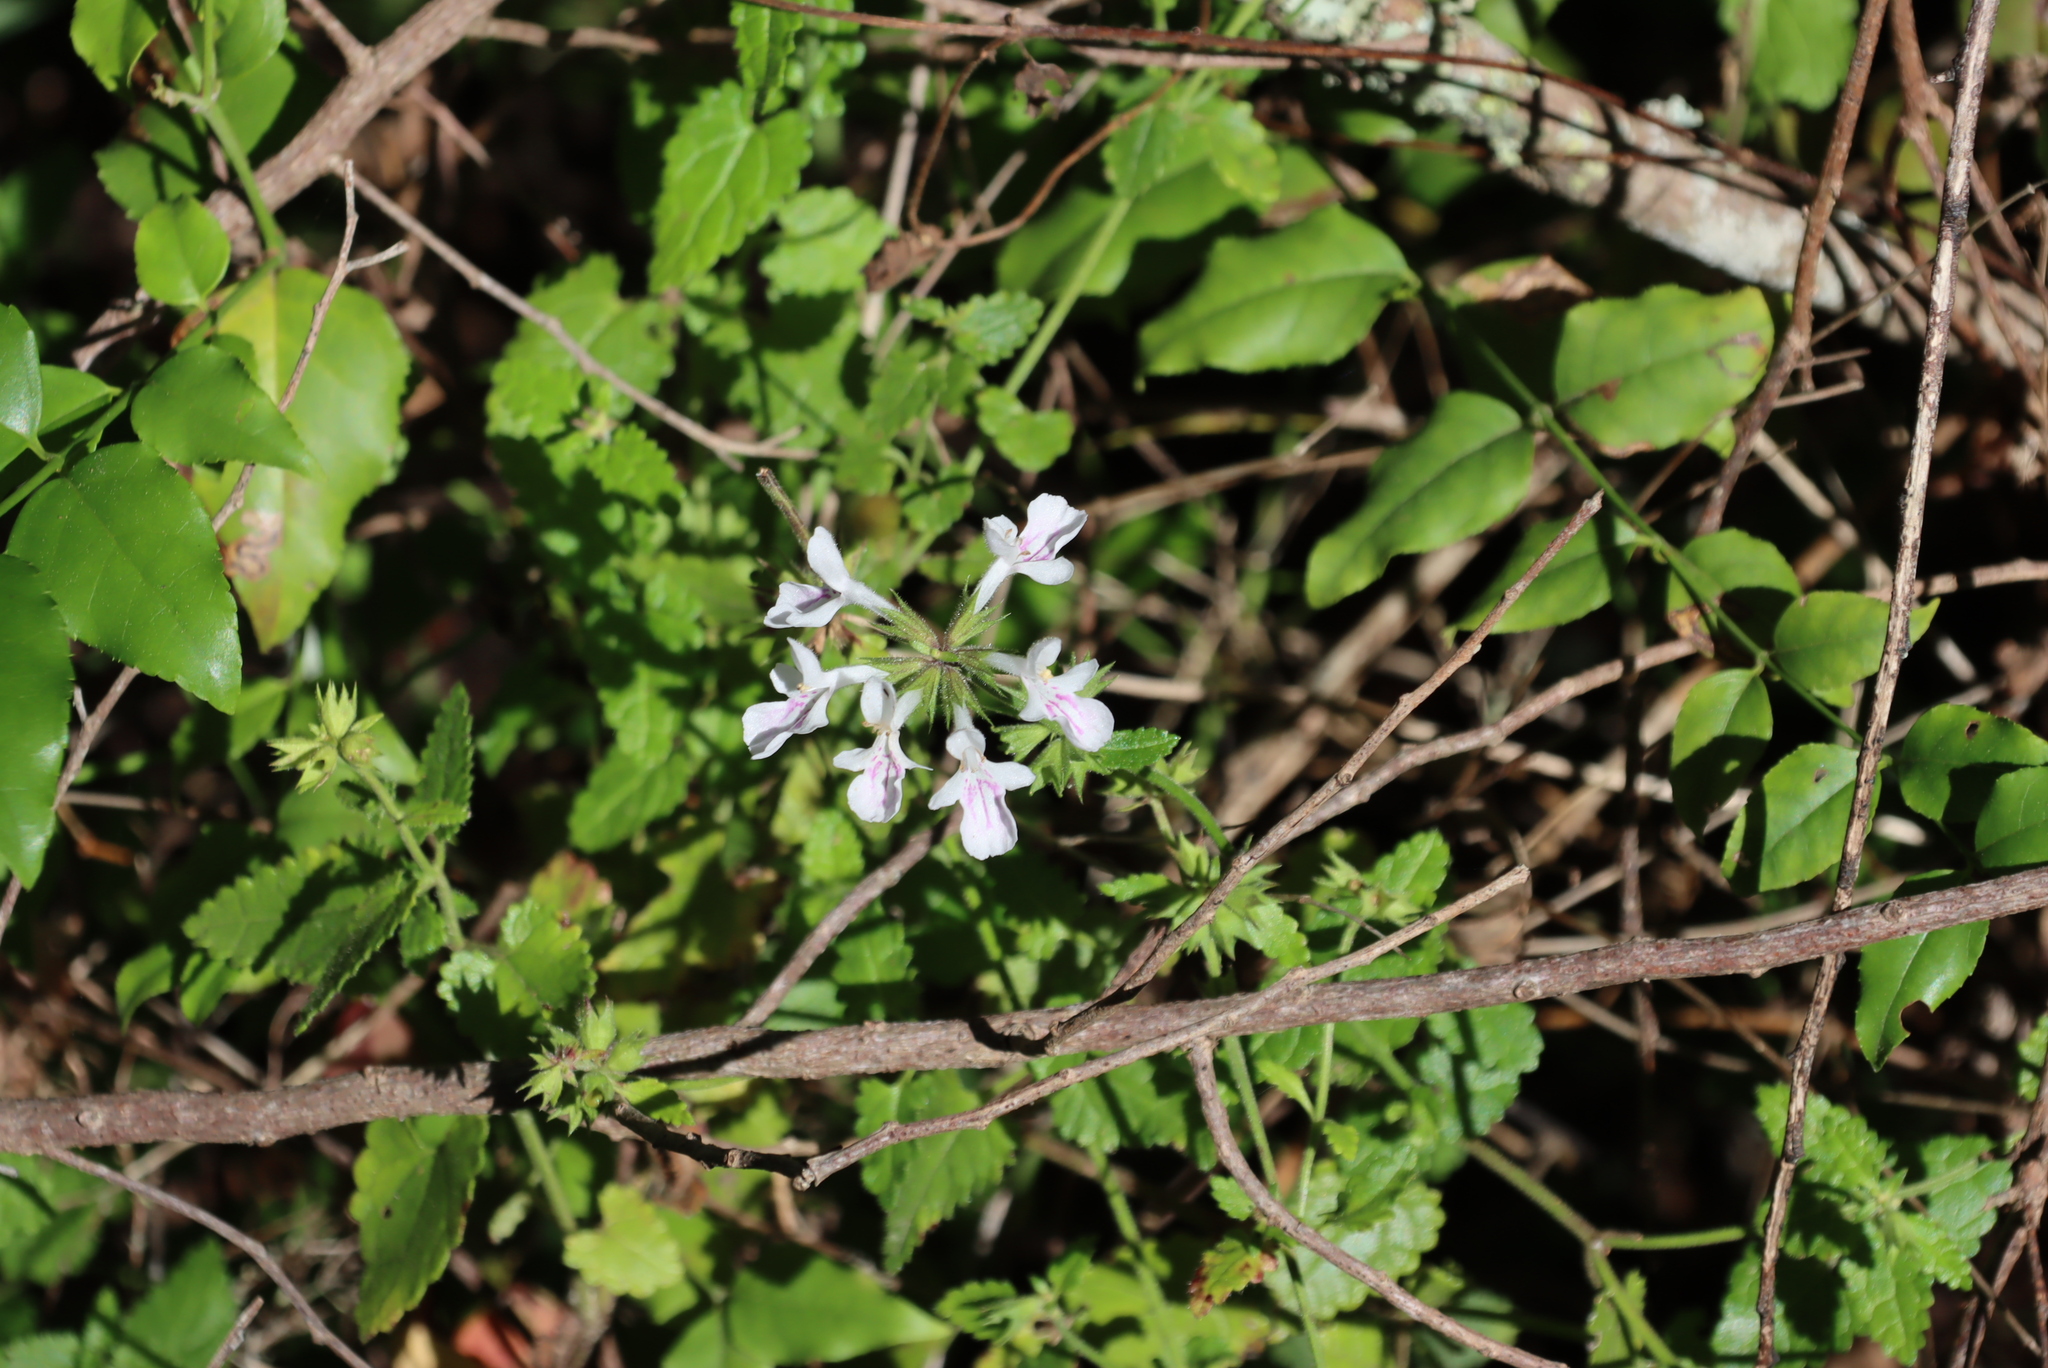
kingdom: Plantae
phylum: Tracheophyta
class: Magnoliopsida
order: Lamiales
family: Lamiaceae
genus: Stachys
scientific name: Stachys aethiopica
